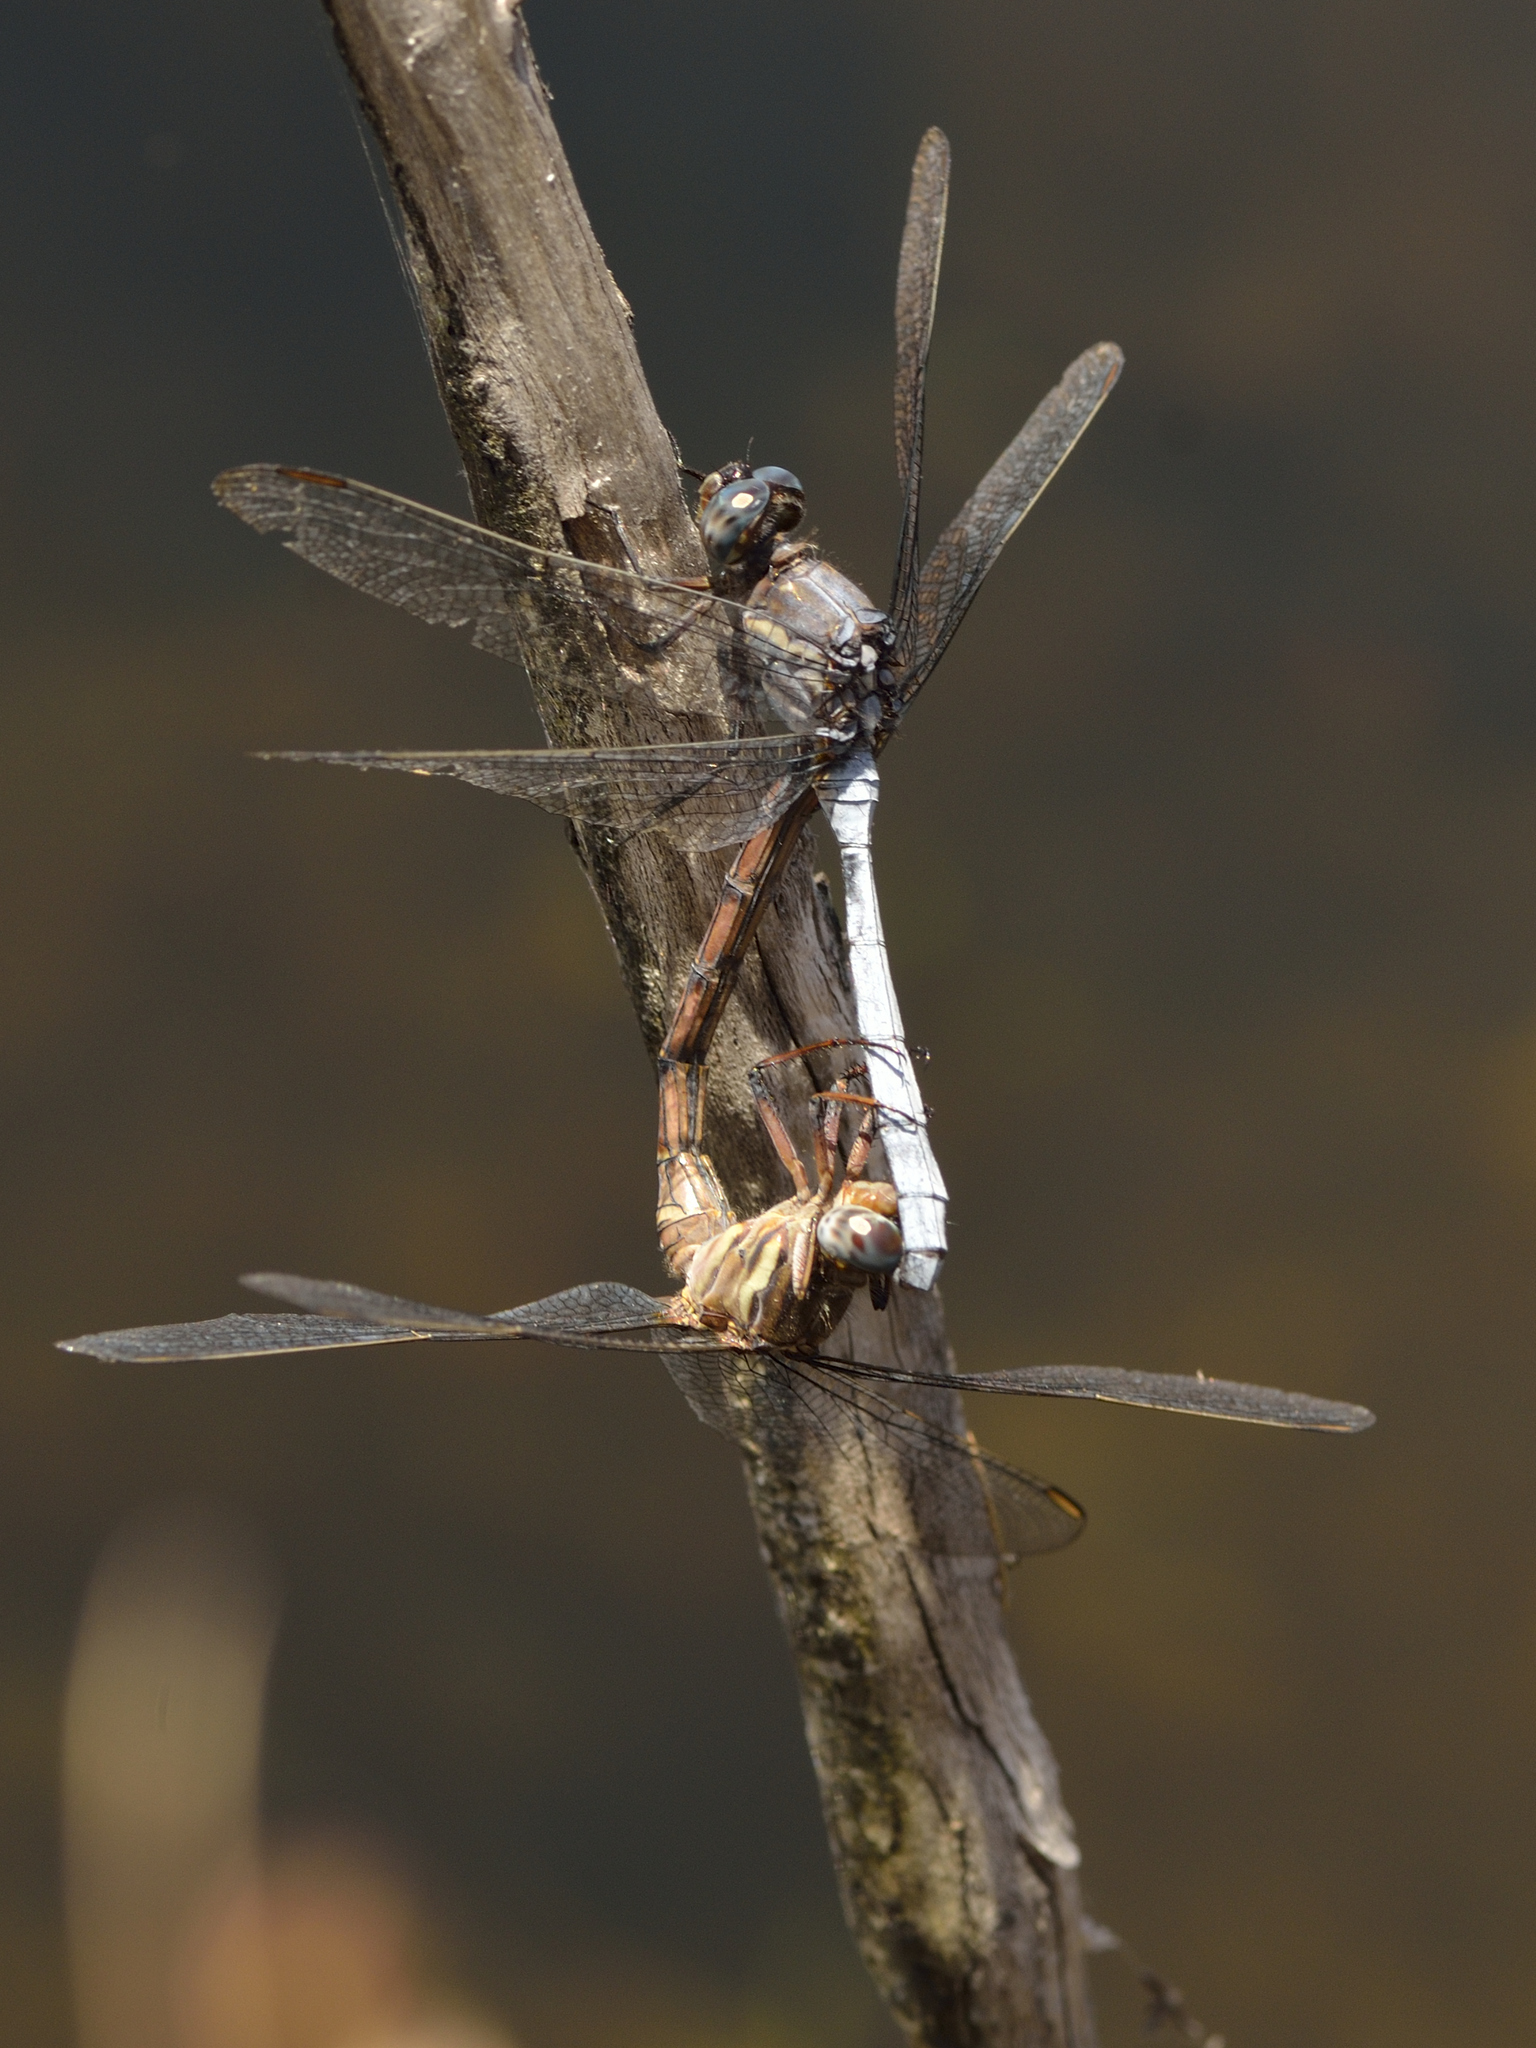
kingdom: Animalia
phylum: Arthropoda
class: Insecta
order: Odonata
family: Libellulidae
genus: Orthetrum
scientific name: Orthetrum julia
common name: Julia skimmer
